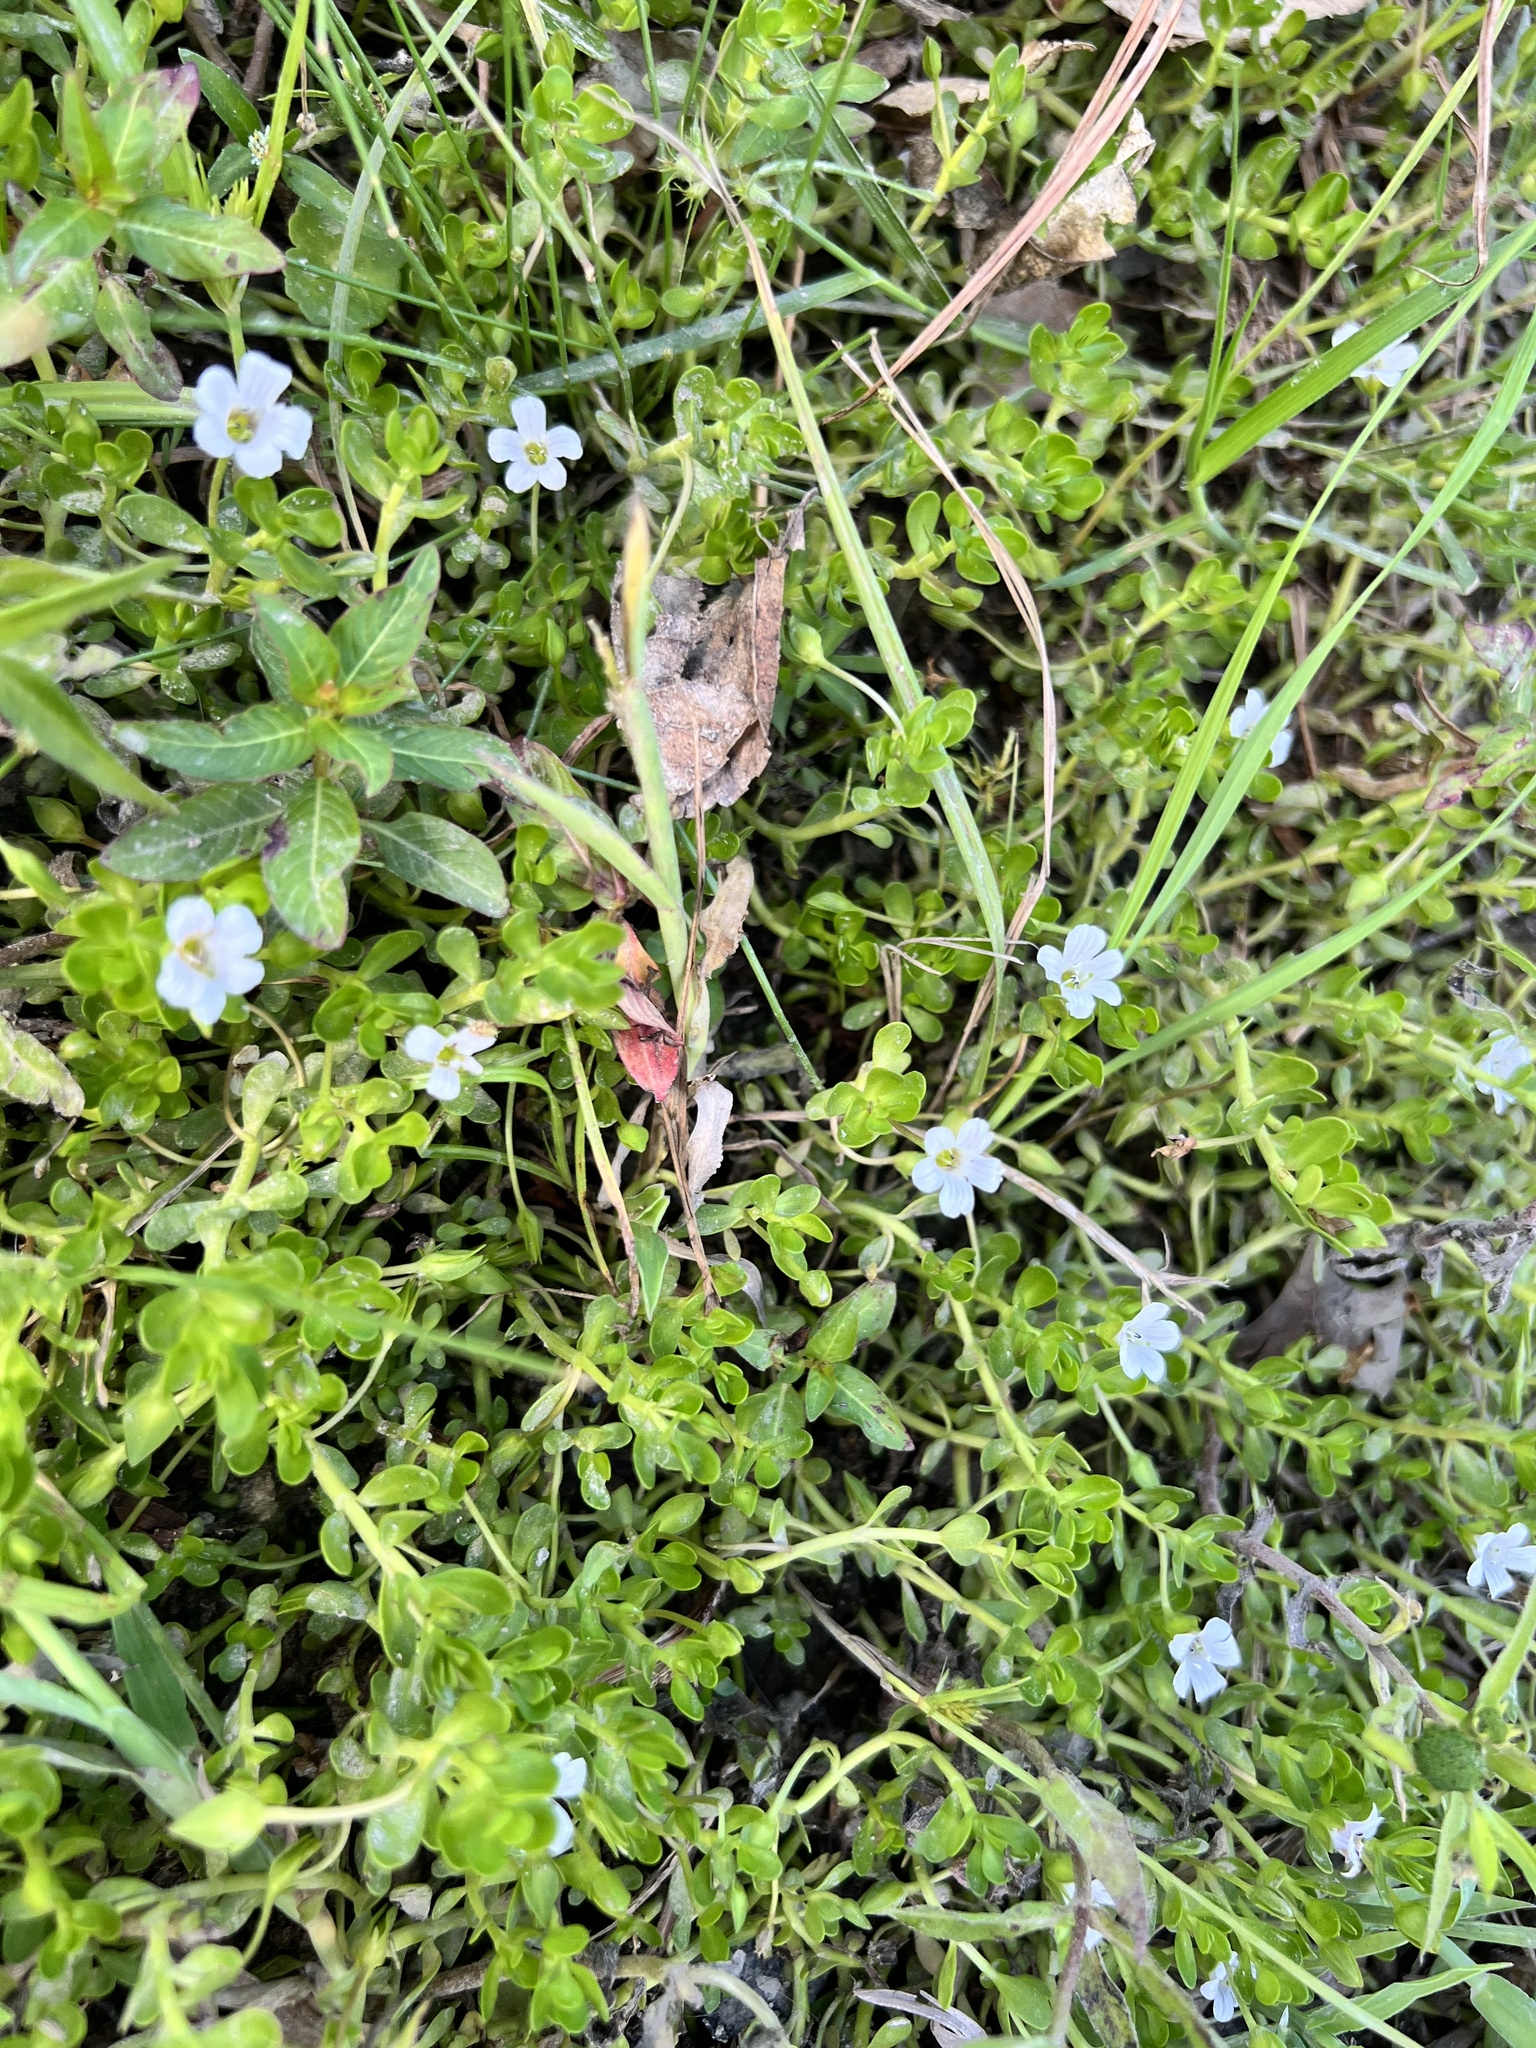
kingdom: Plantae
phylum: Tracheophyta
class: Magnoliopsida
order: Lamiales
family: Plantaginaceae
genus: Bacopa
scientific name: Bacopa monnieri
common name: Indian-pennywort
